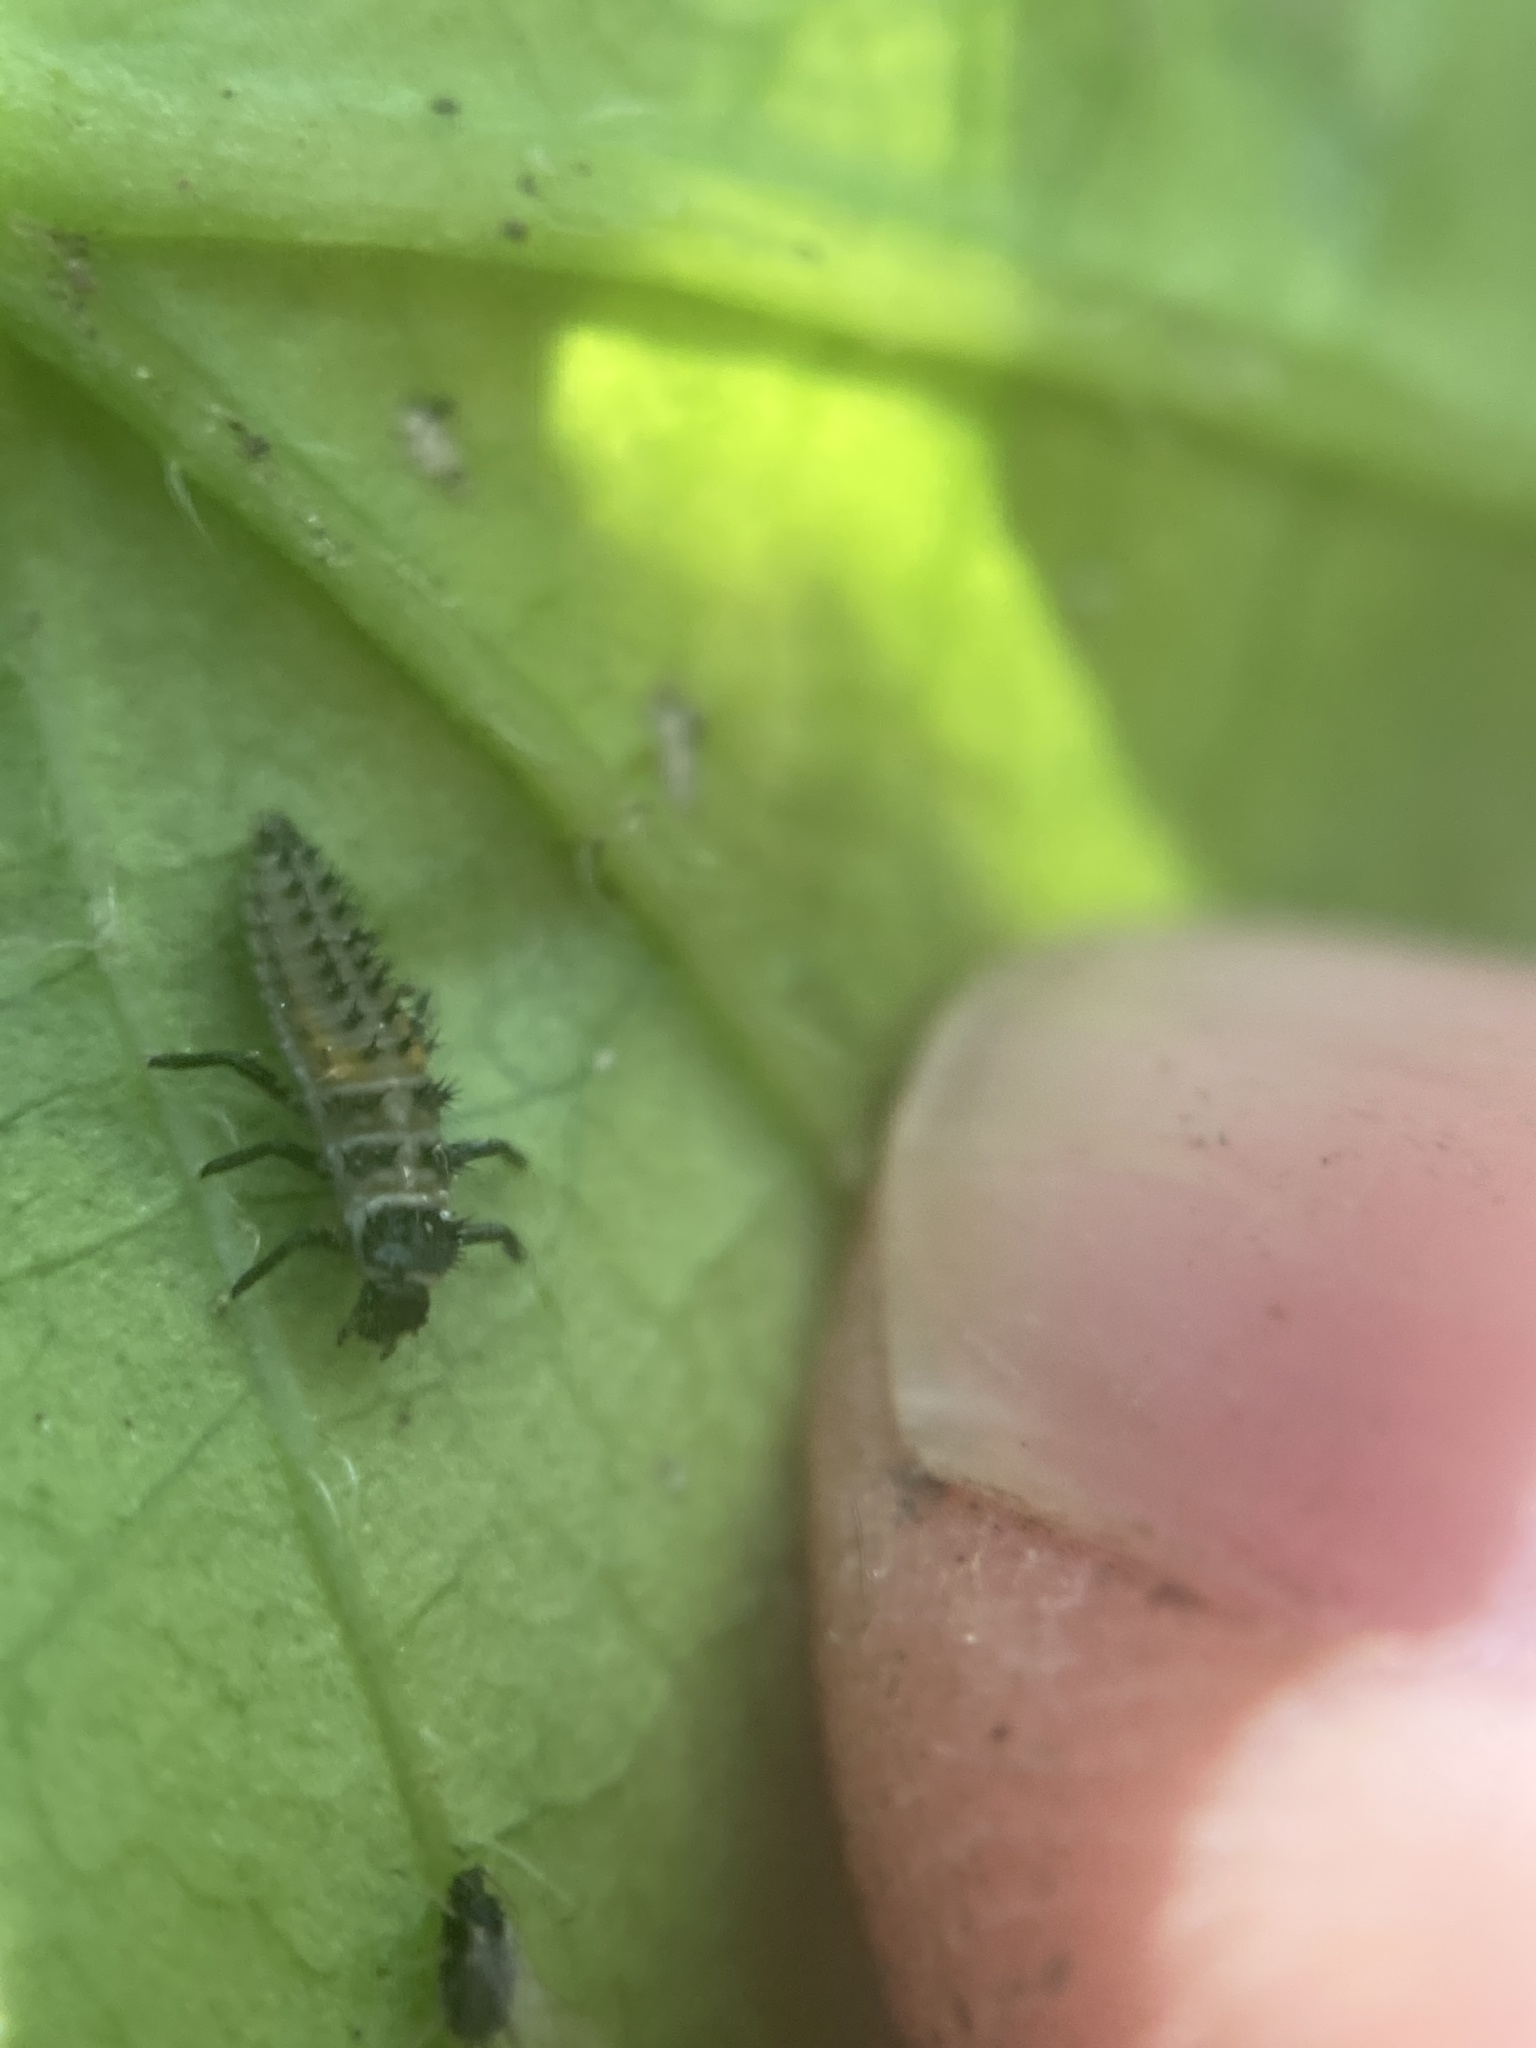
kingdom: Animalia
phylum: Arthropoda
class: Insecta
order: Coleoptera
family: Coccinellidae
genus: Harmonia
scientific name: Harmonia axyridis
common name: Harlequin ladybird
